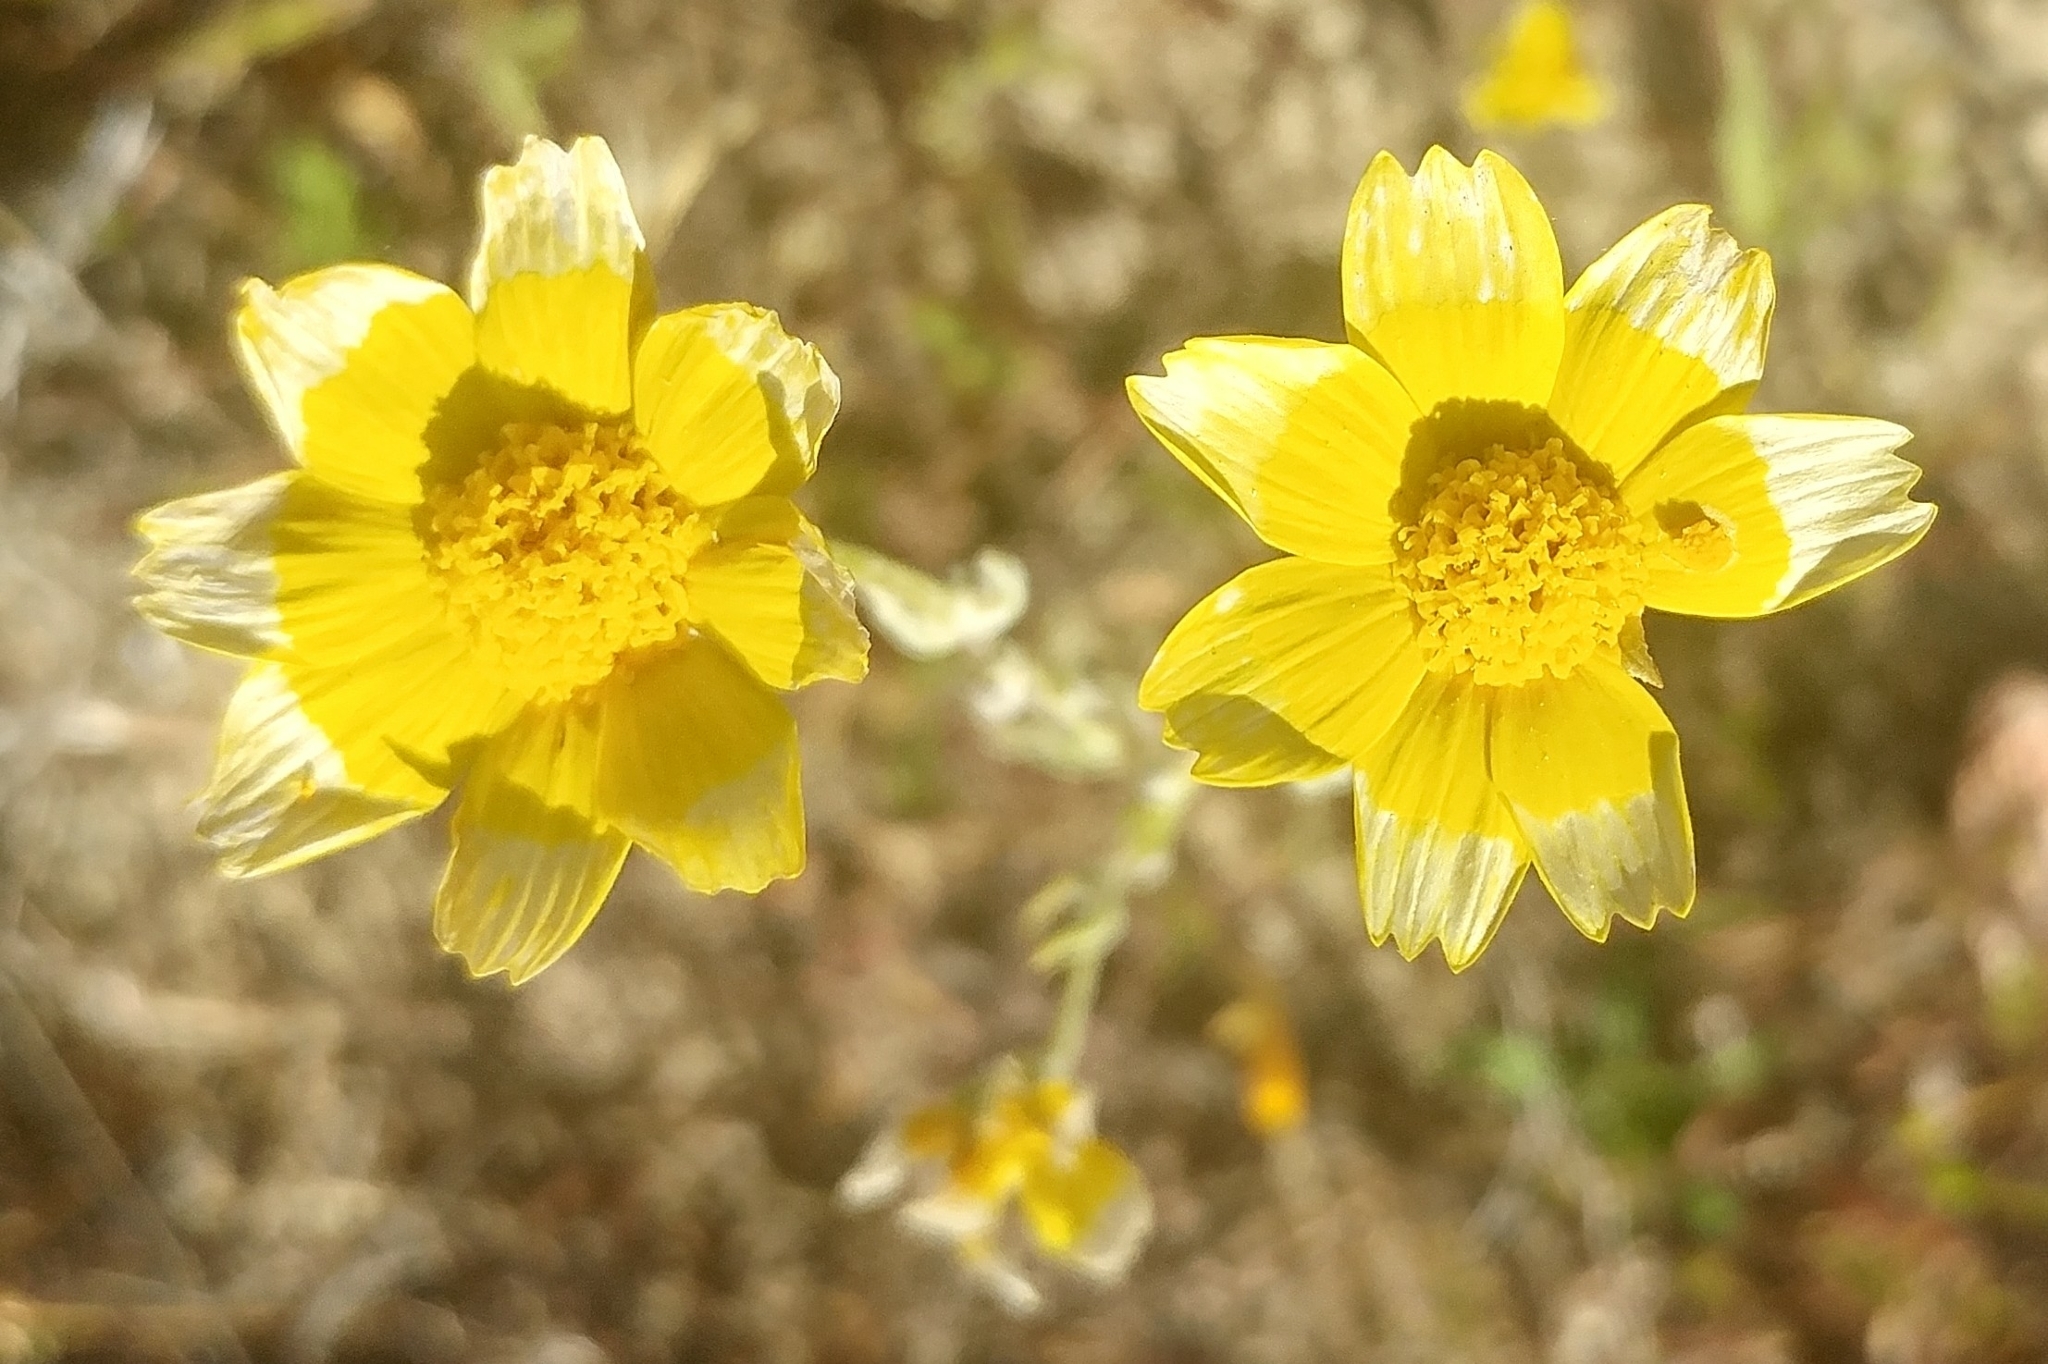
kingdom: Plantae
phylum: Tracheophyta
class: Magnoliopsida
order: Asterales
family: Asteraceae
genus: Monolopia
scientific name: Monolopia lanceolata
